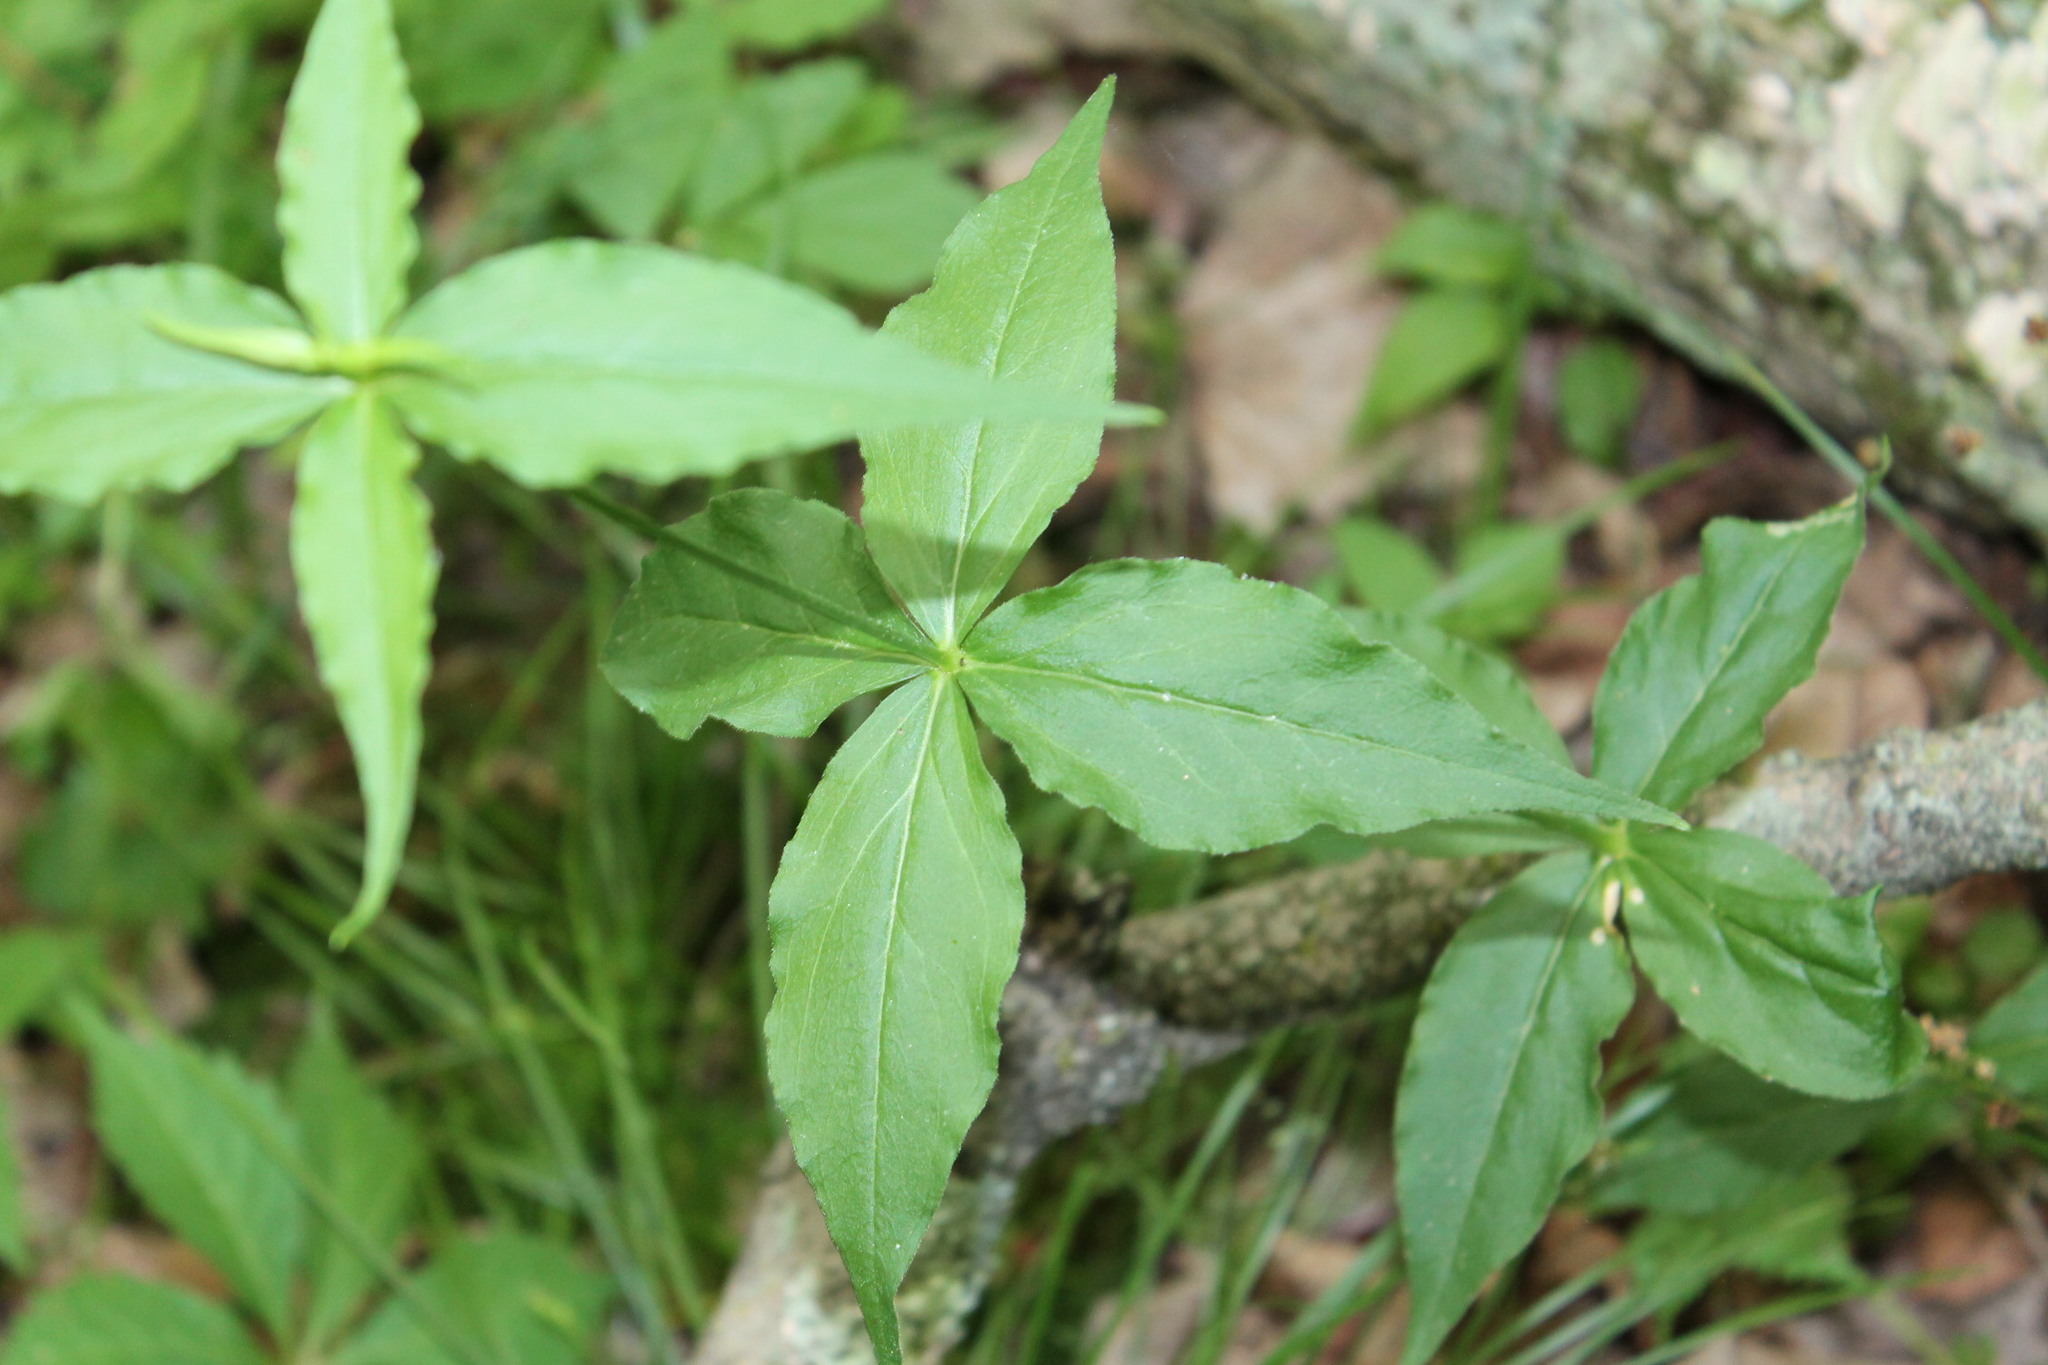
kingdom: Plantae
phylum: Tracheophyta
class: Magnoliopsida
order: Caryophyllales
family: Caryophyllaceae
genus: Silene
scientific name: Silene stellata
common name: Starry campion
